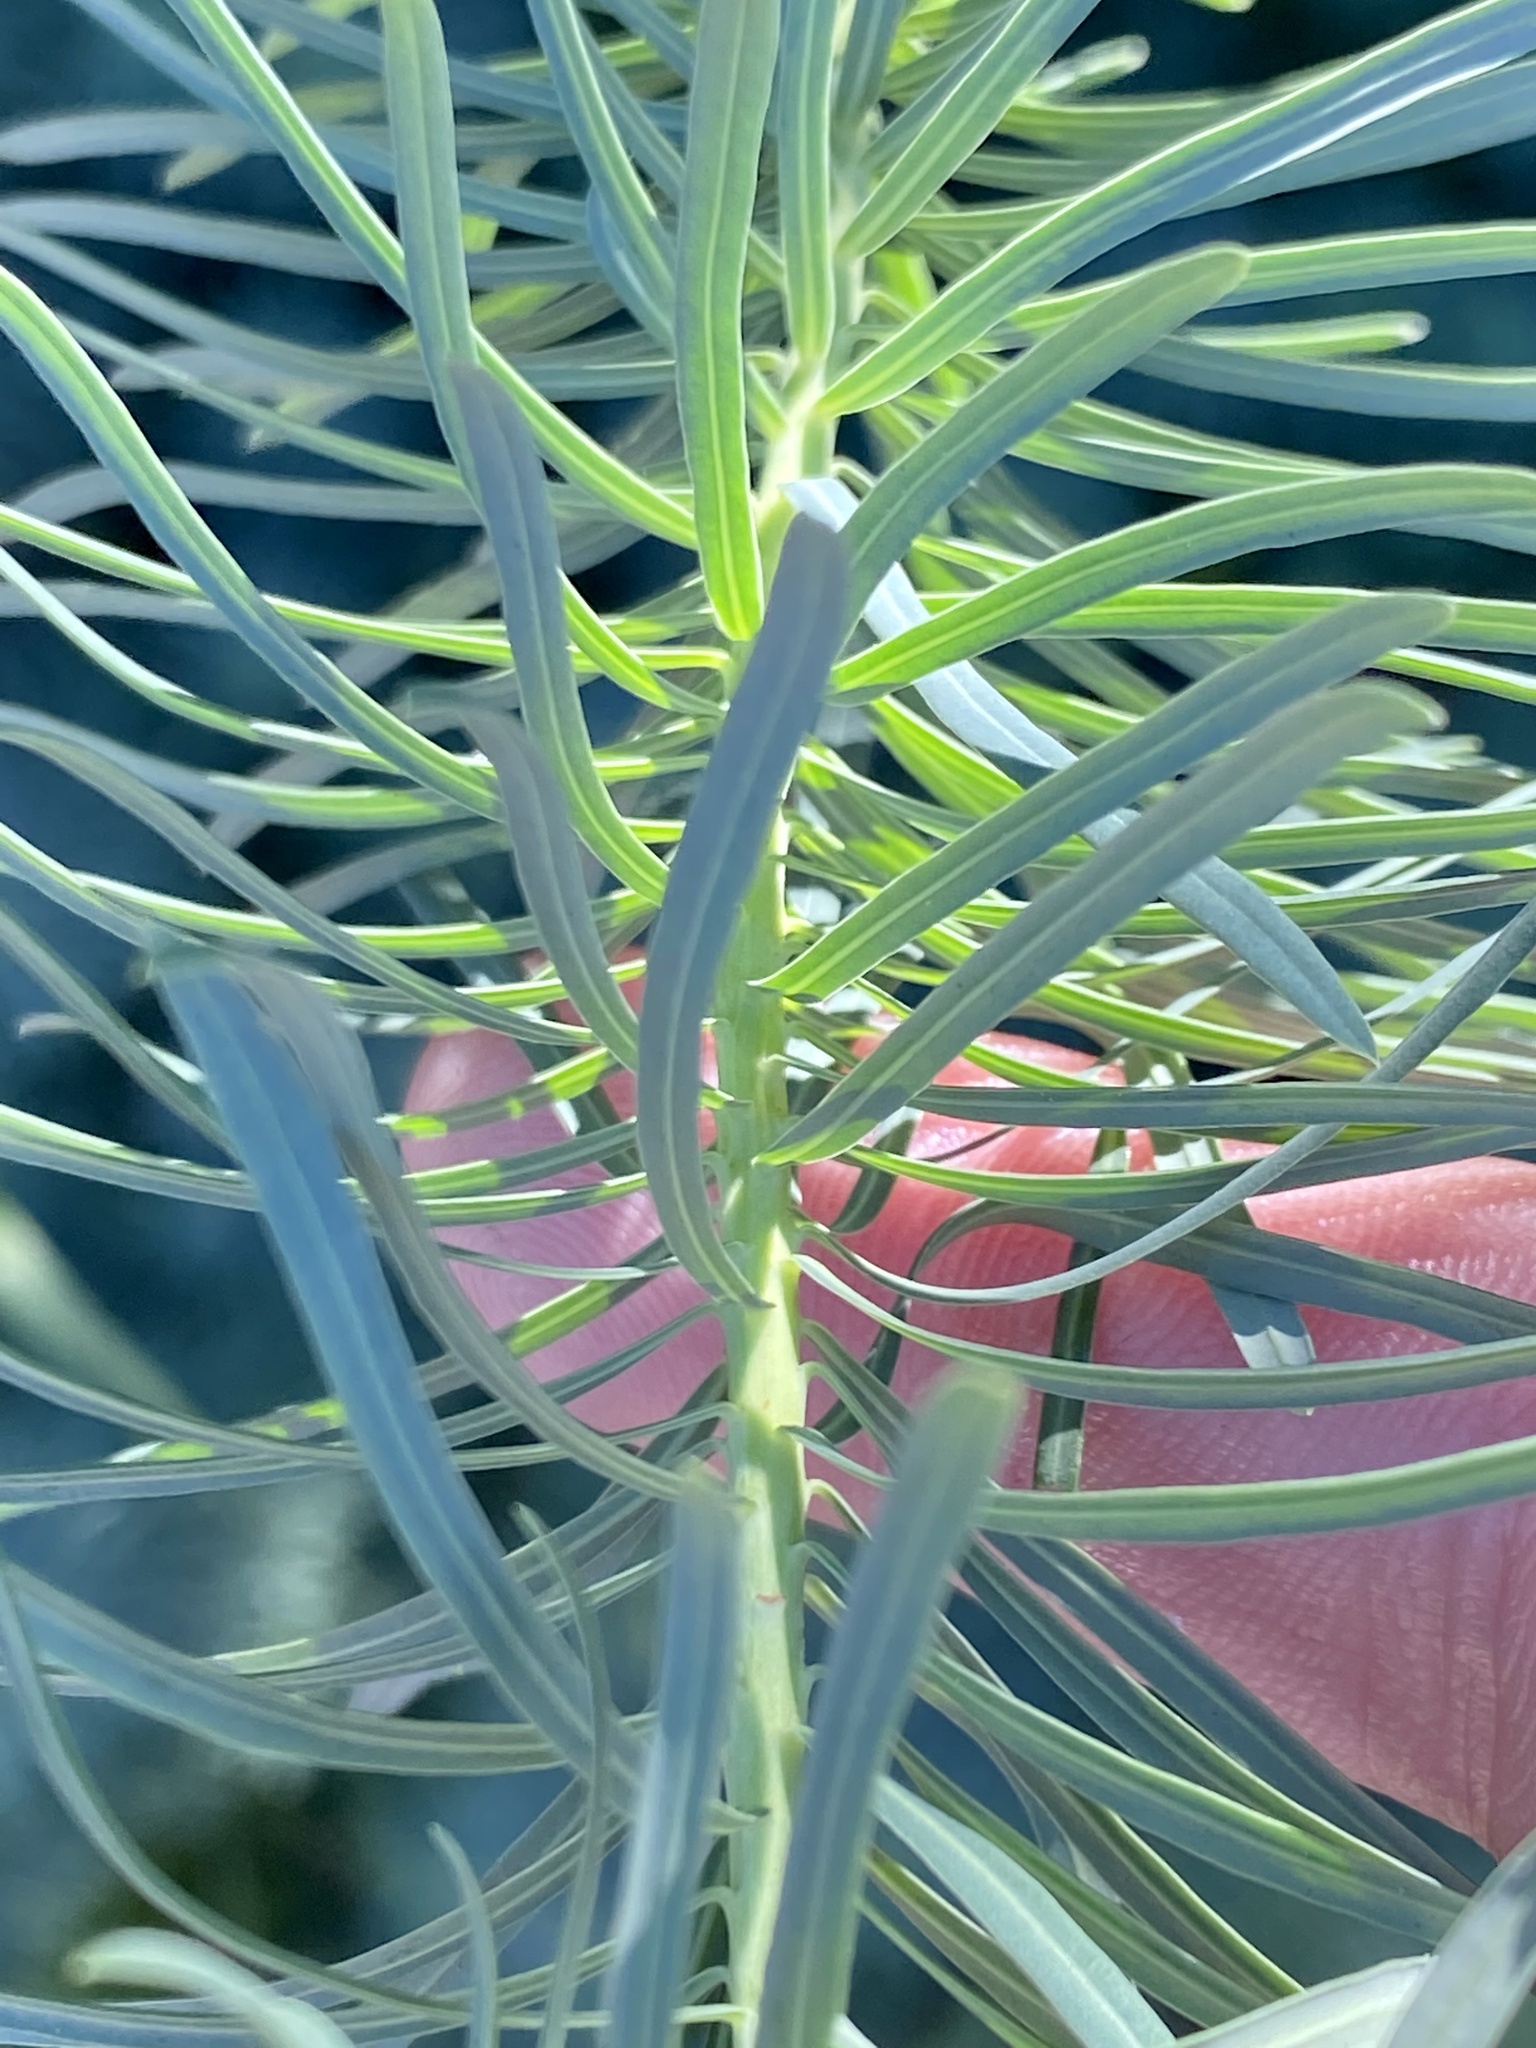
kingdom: Plantae
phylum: Tracheophyta
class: Magnoliopsida
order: Malpighiales
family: Euphorbiaceae
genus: Euphorbia
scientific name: Euphorbia cyparissias
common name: Cypress spurge
